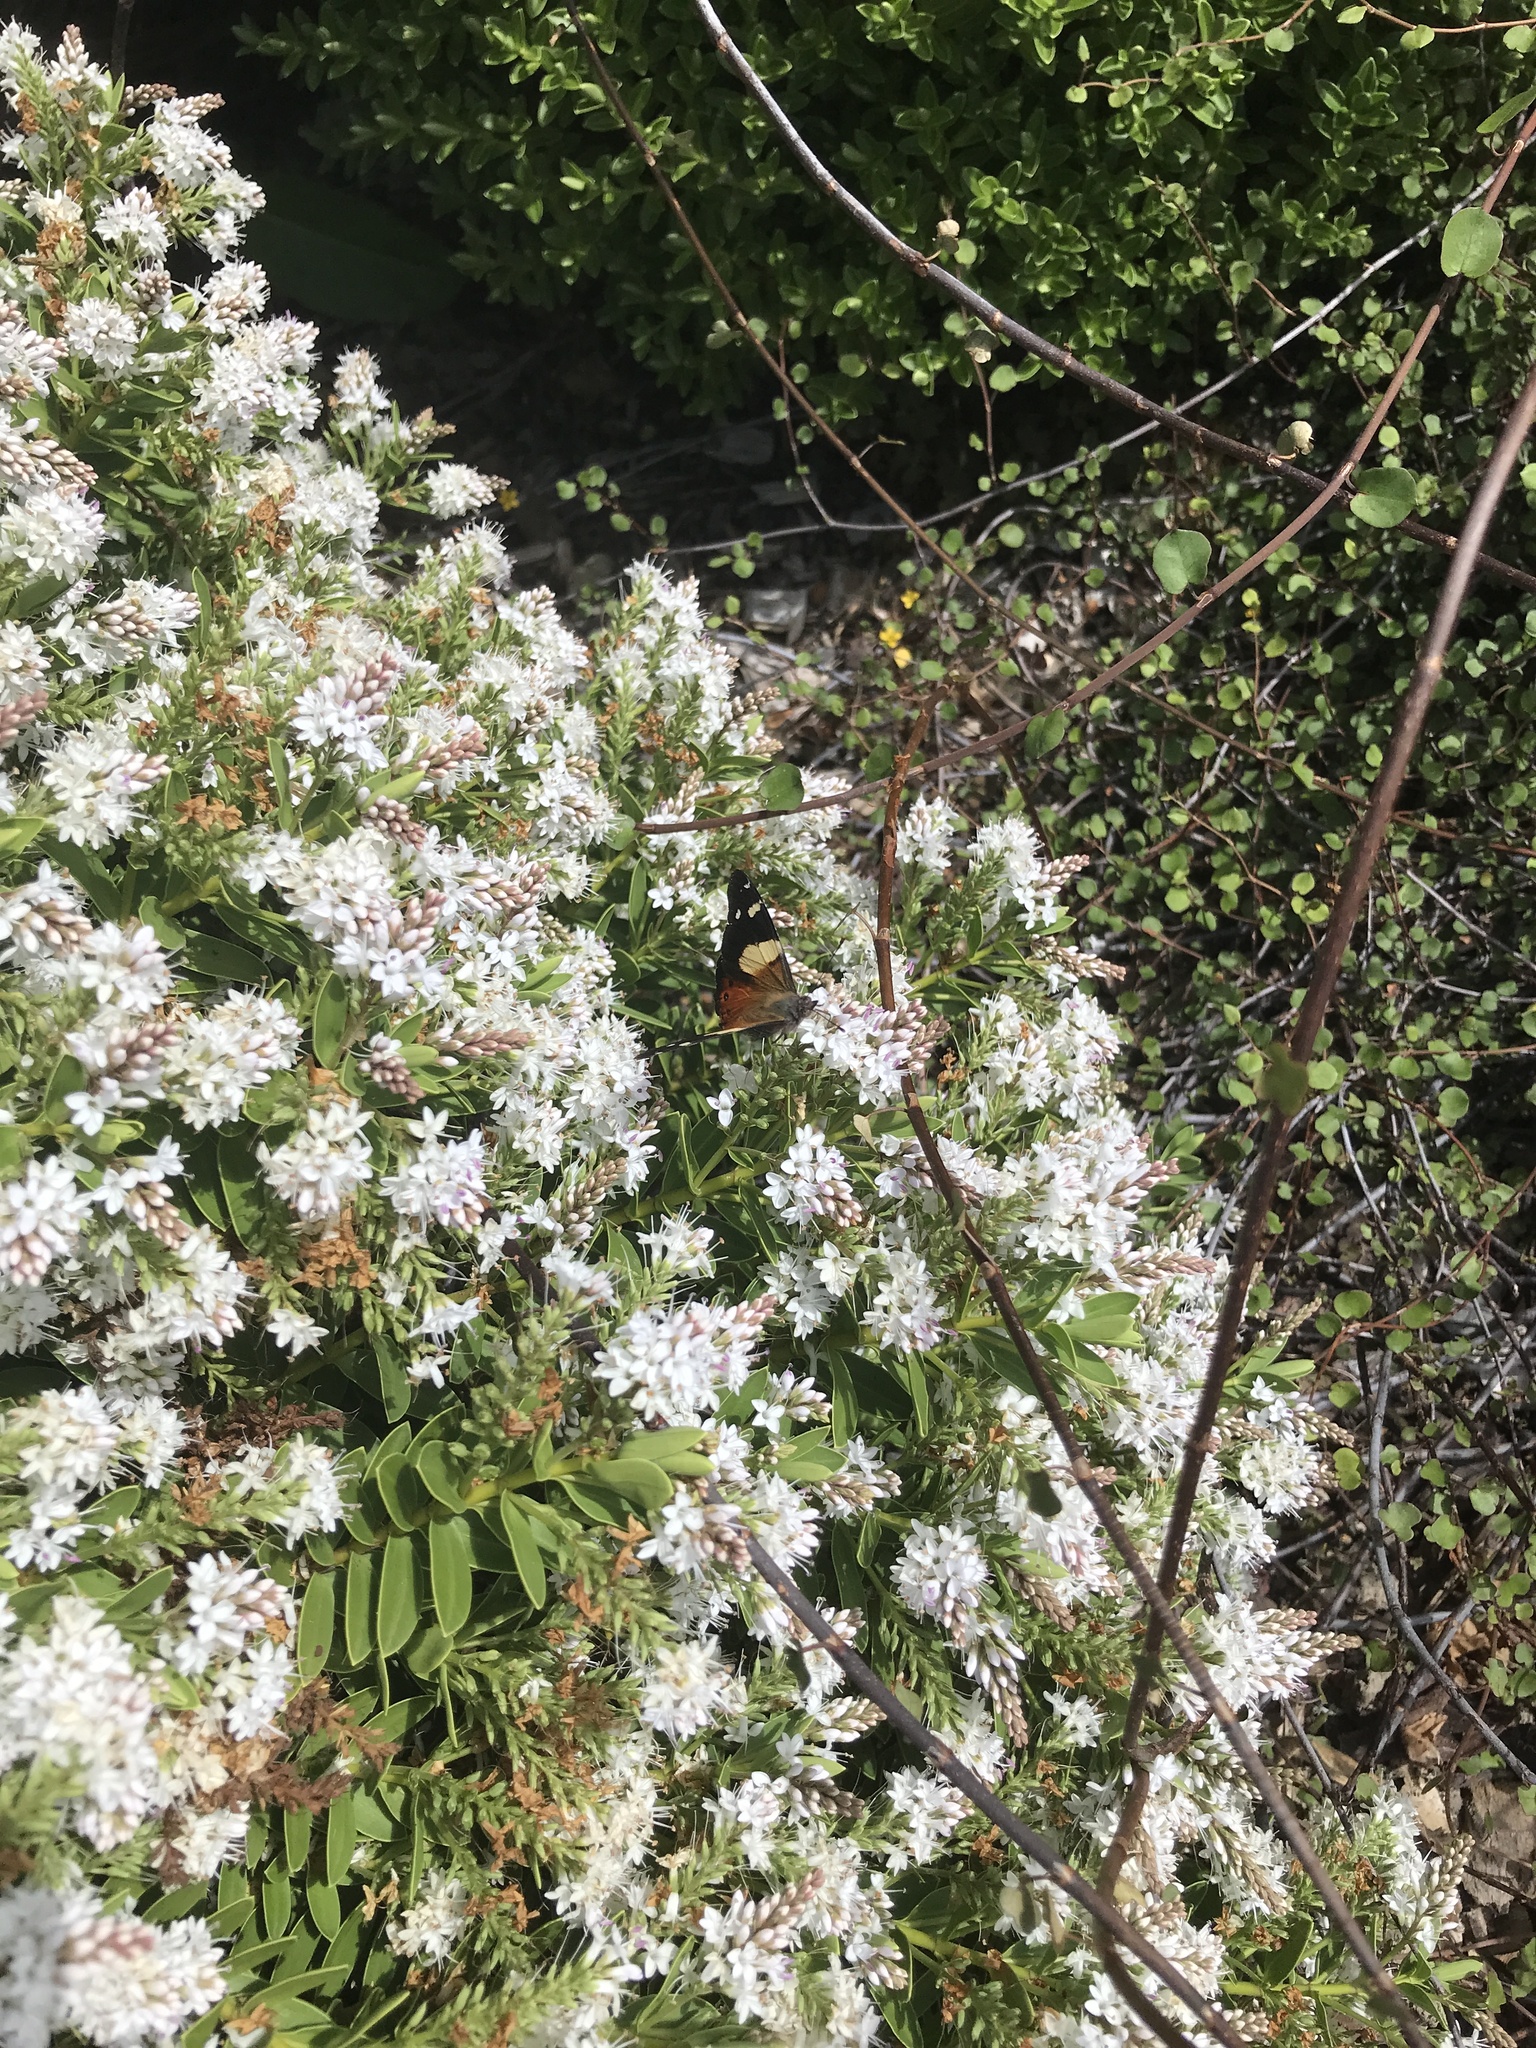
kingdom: Animalia
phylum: Arthropoda
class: Insecta
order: Lepidoptera
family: Nymphalidae
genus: Vanessa
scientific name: Vanessa itea
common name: Yellow admiral
